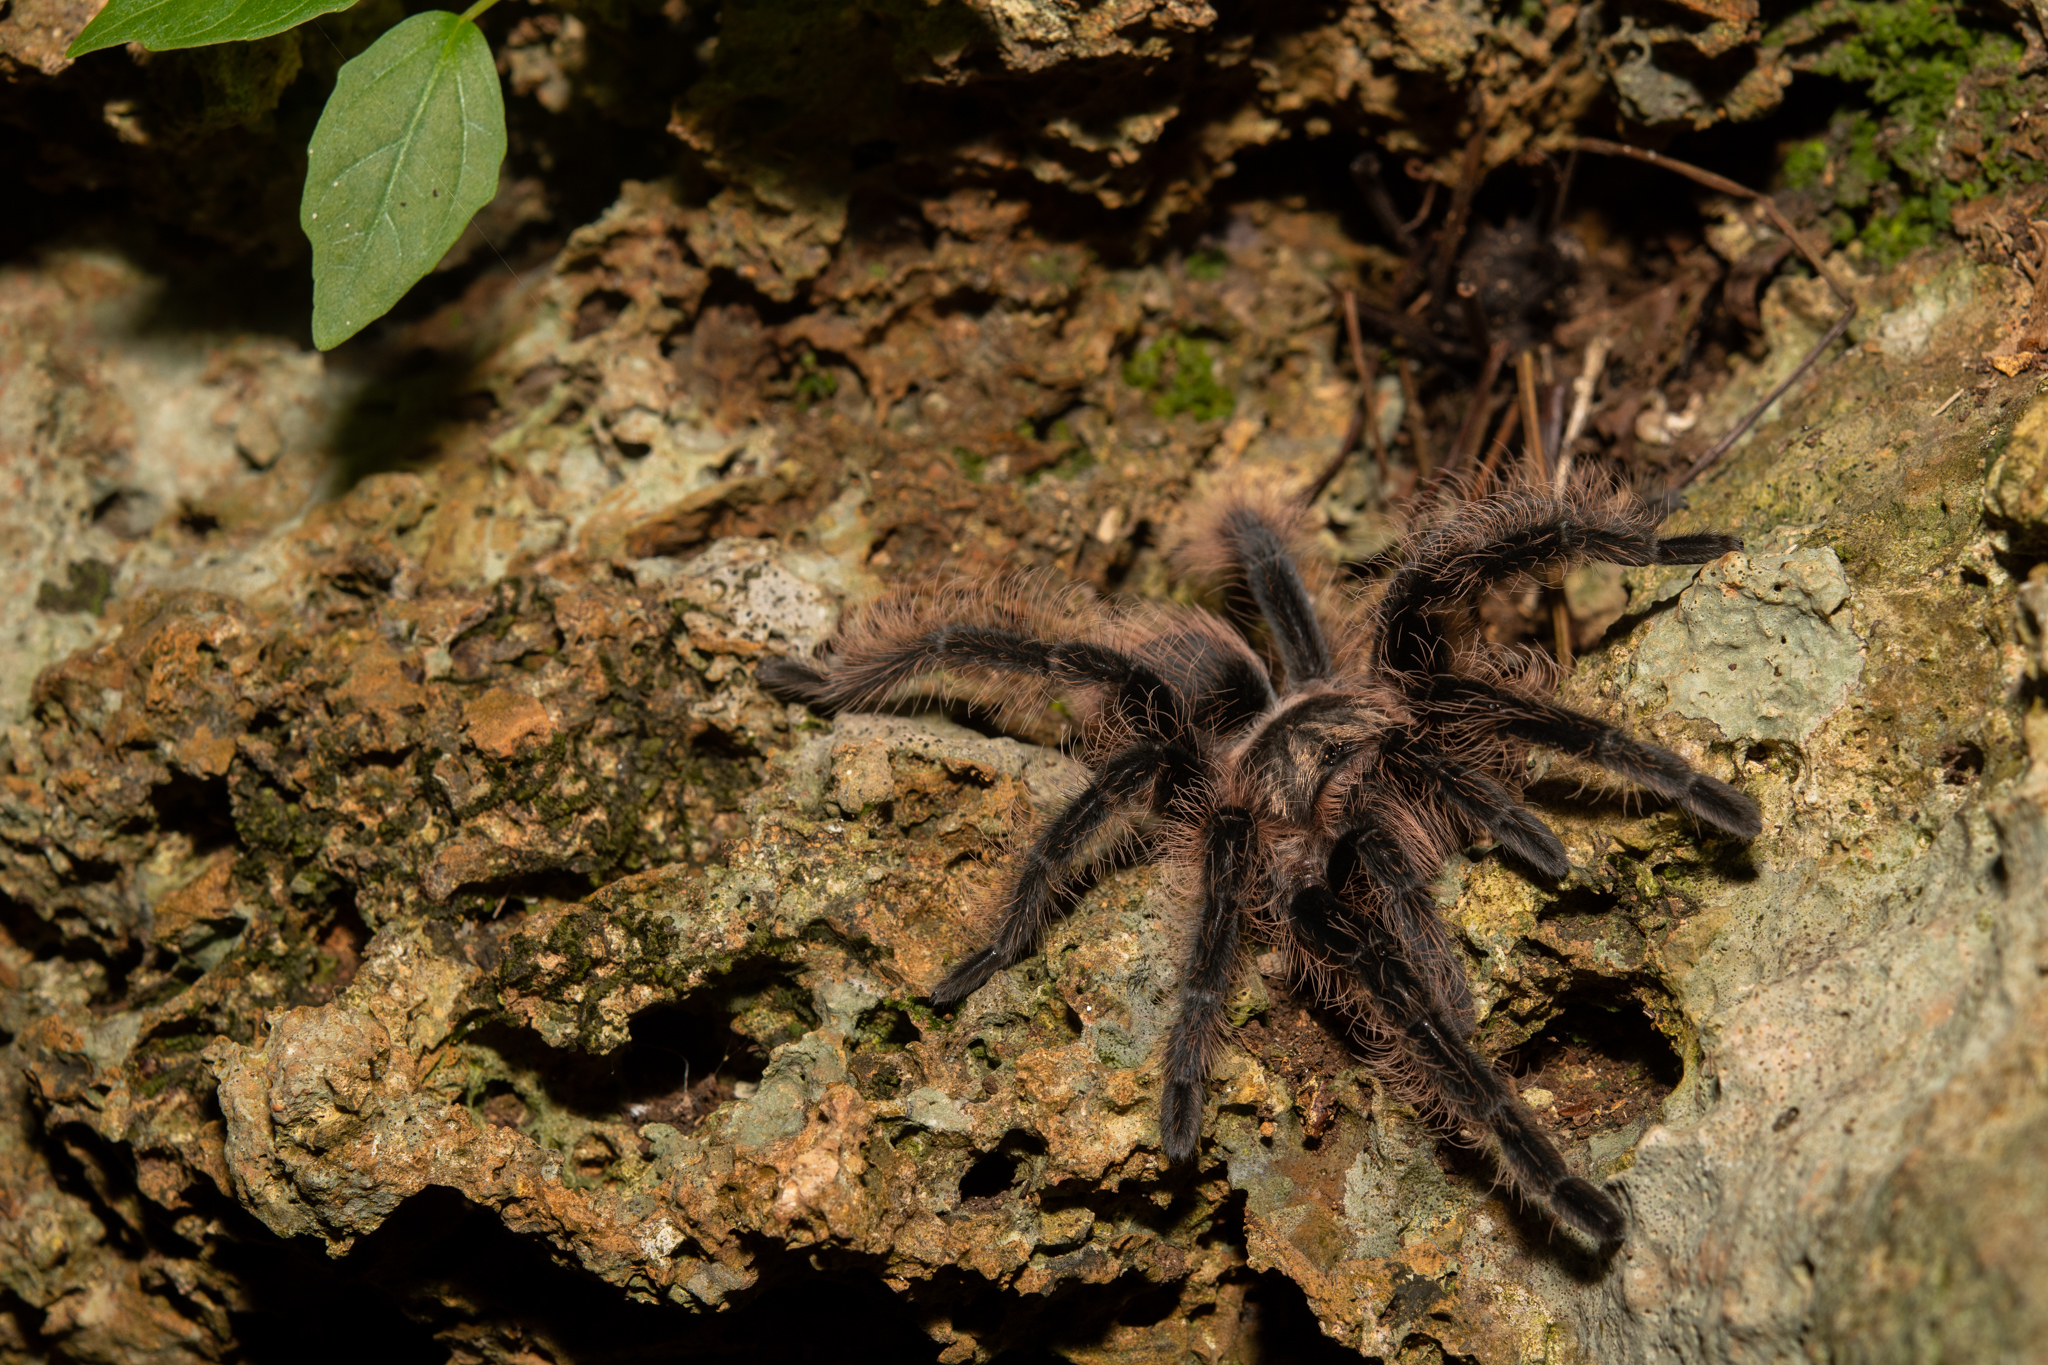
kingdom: Animalia
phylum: Arthropoda
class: Arachnida
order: Araneae
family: Theraphosidae
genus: Tliltocatl
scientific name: Tliltocatl albopilosus
